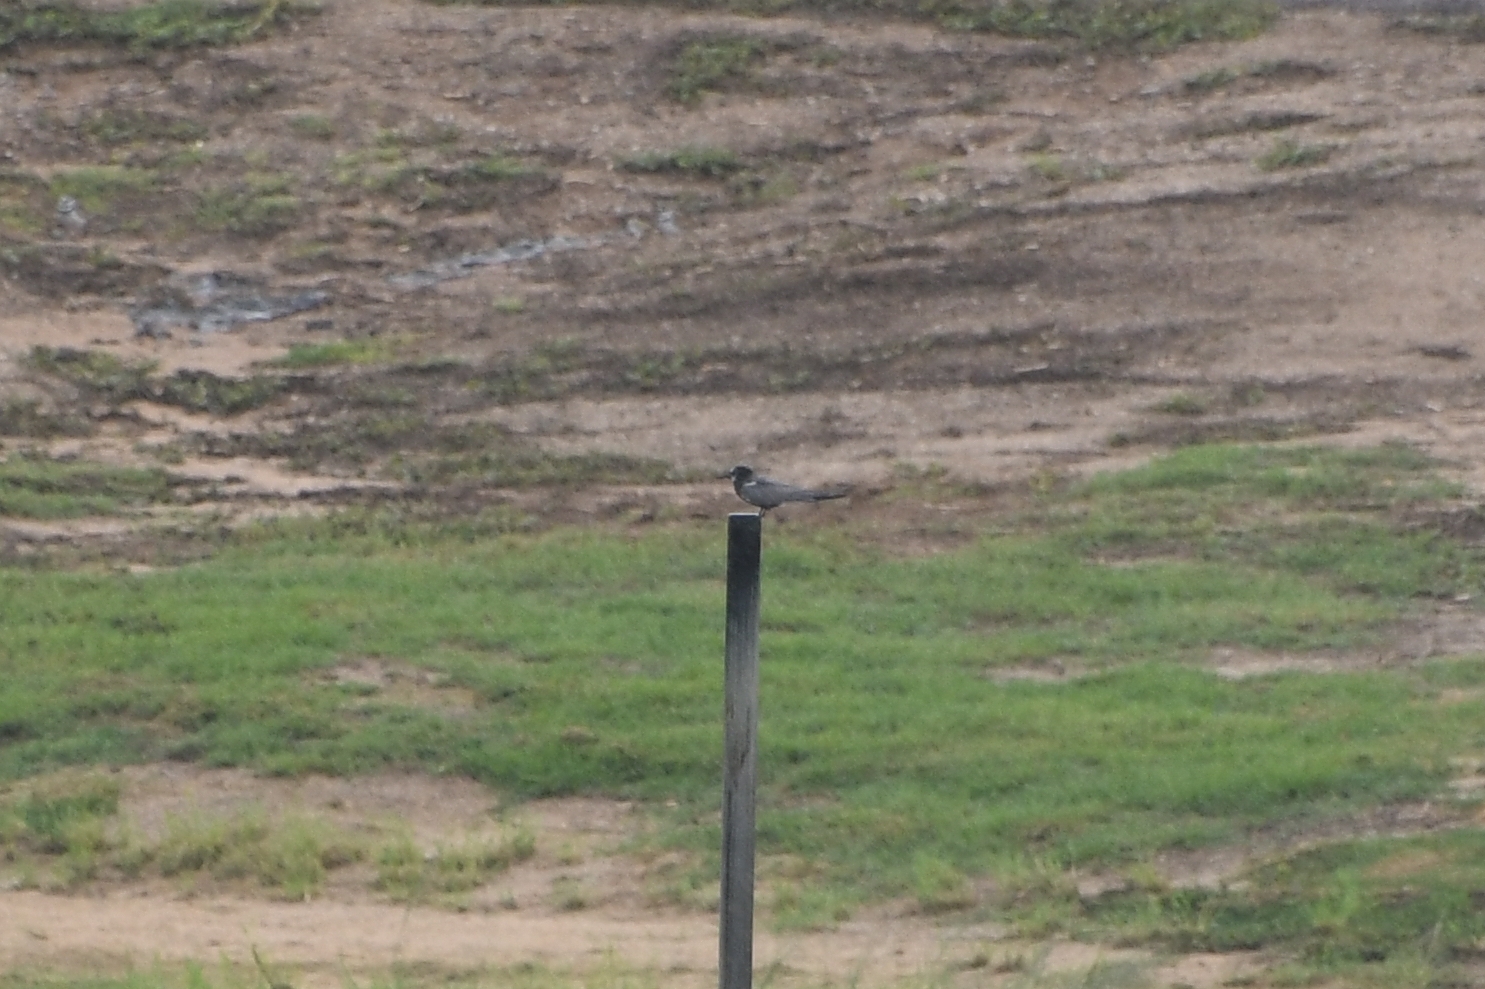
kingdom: Animalia
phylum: Chordata
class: Aves
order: Charadriiformes
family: Laridae
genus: Chlidonias
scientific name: Chlidonias niger
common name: Black tern
